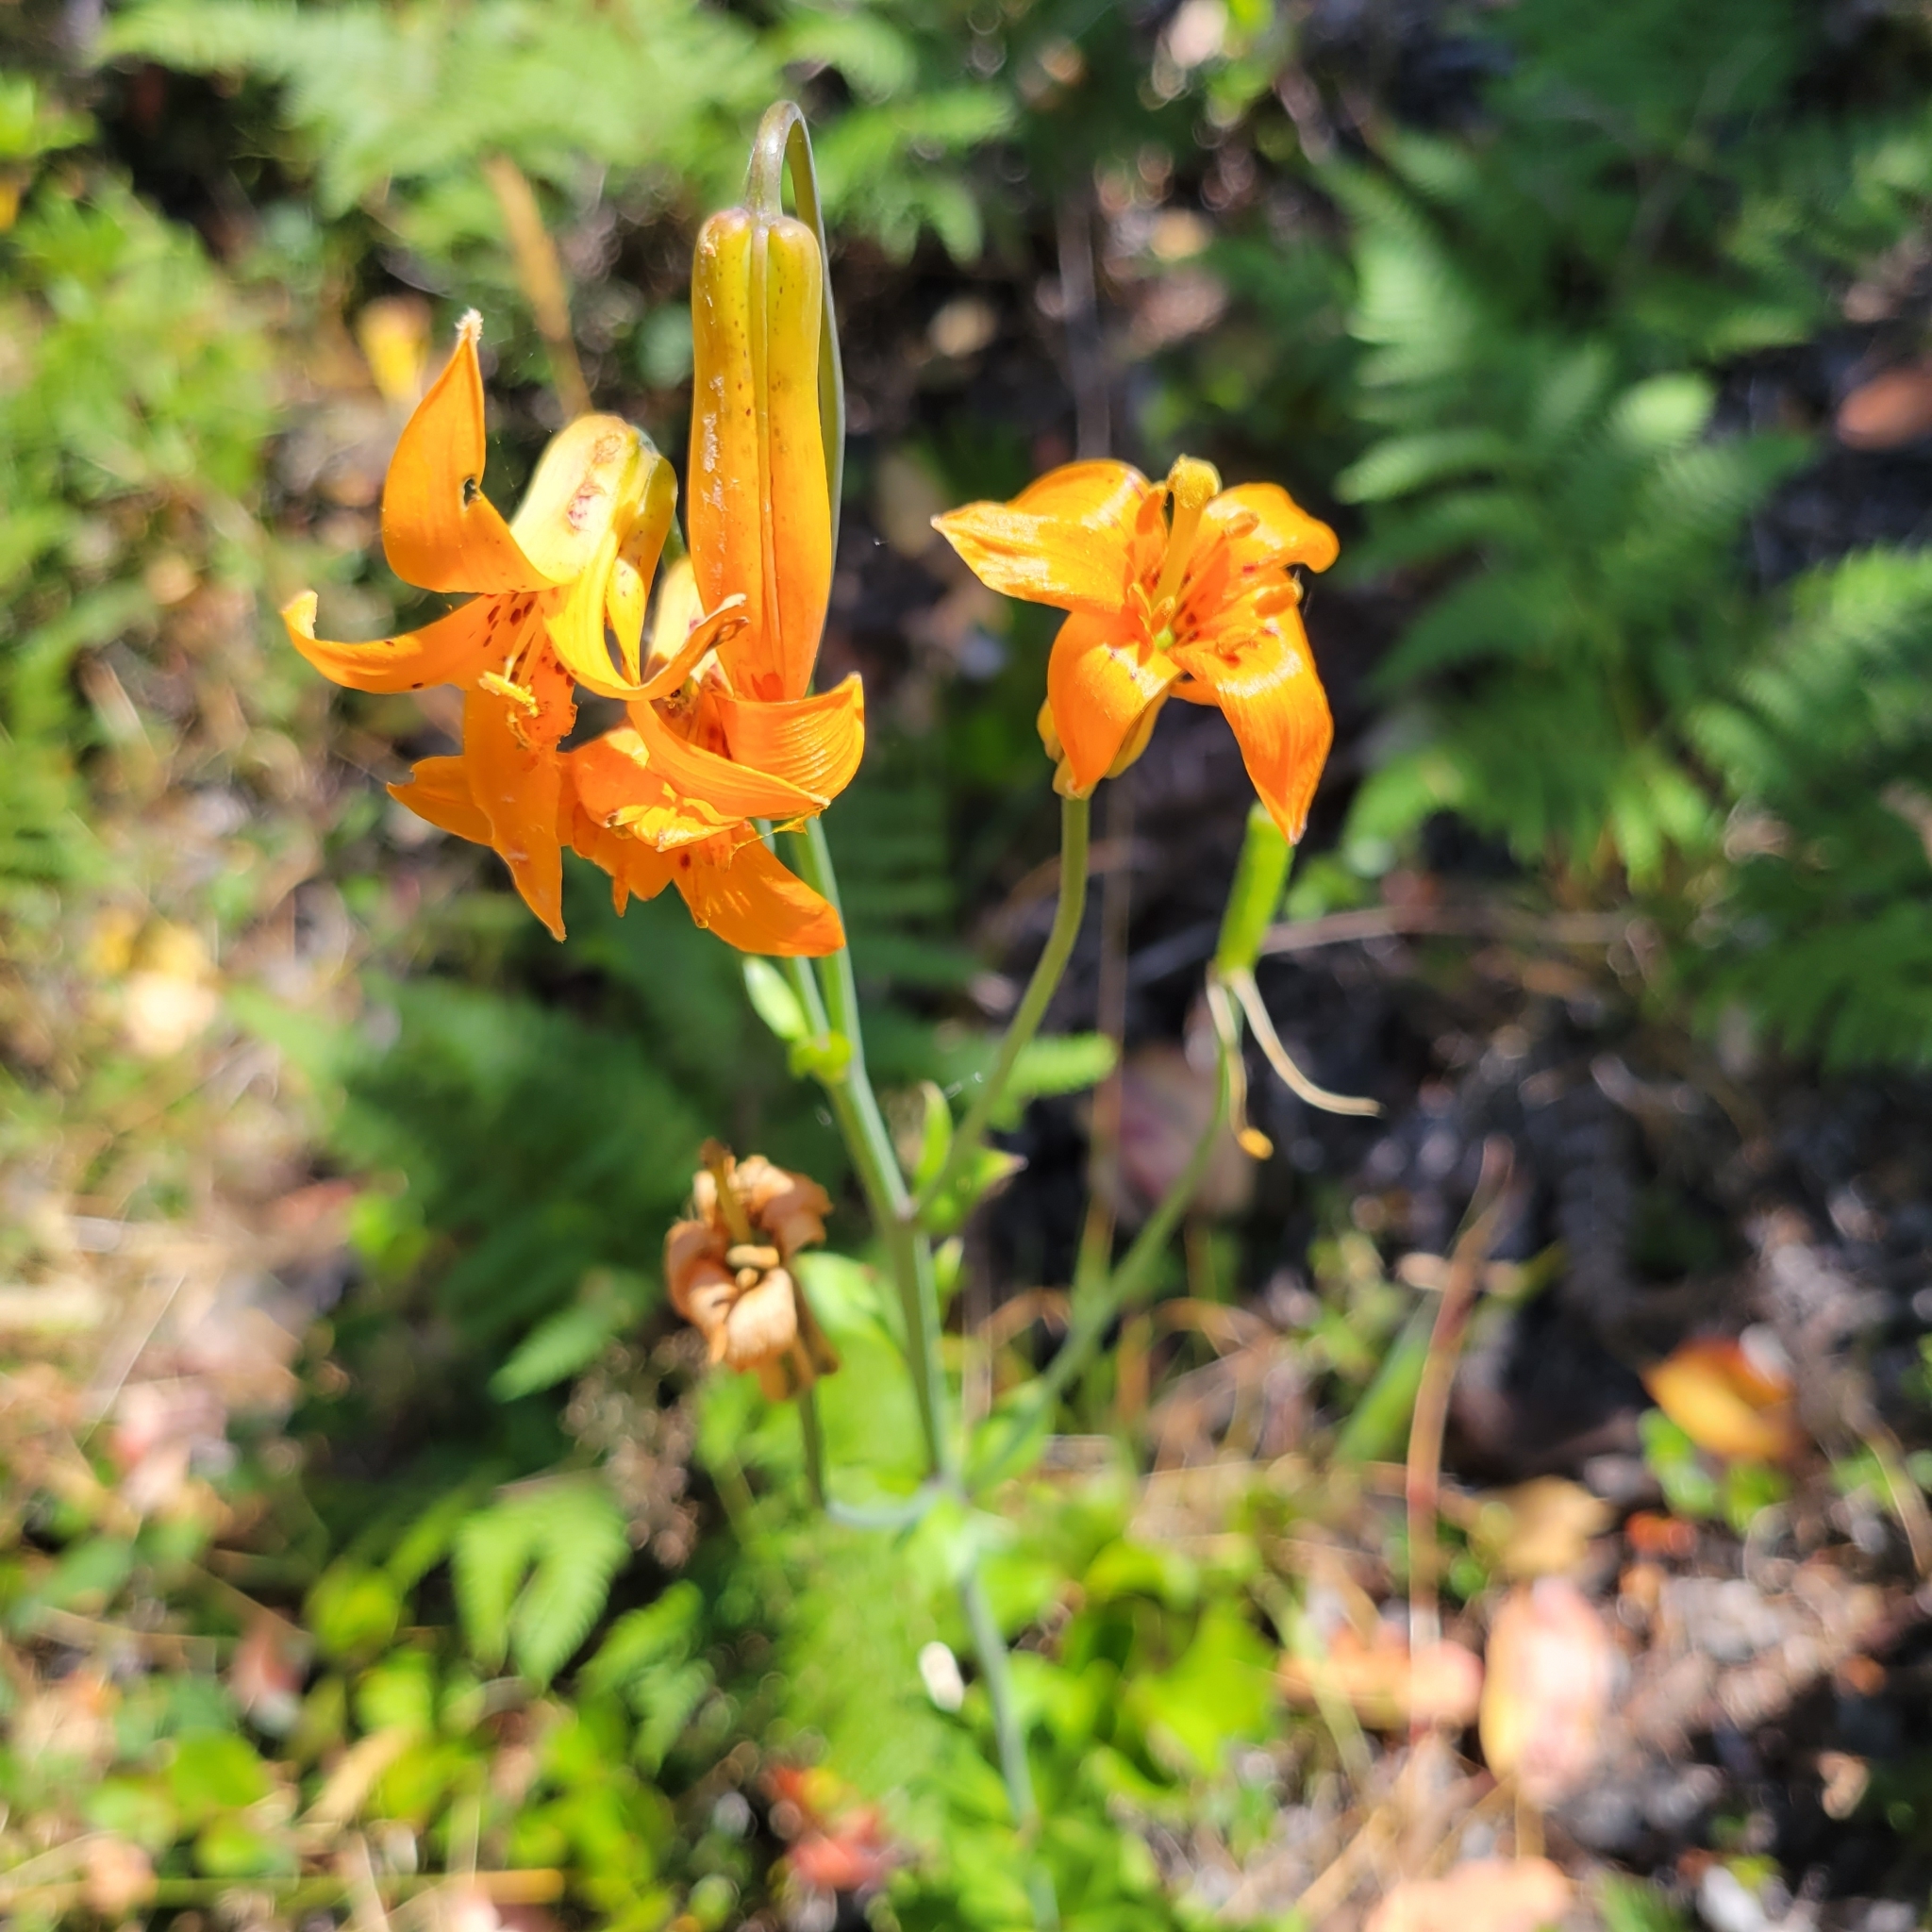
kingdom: Plantae
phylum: Tracheophyta
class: Liliopsida
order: Liliales
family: Liliaceae
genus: Lilium
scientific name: Lilium columbianum
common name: Columbia lily
